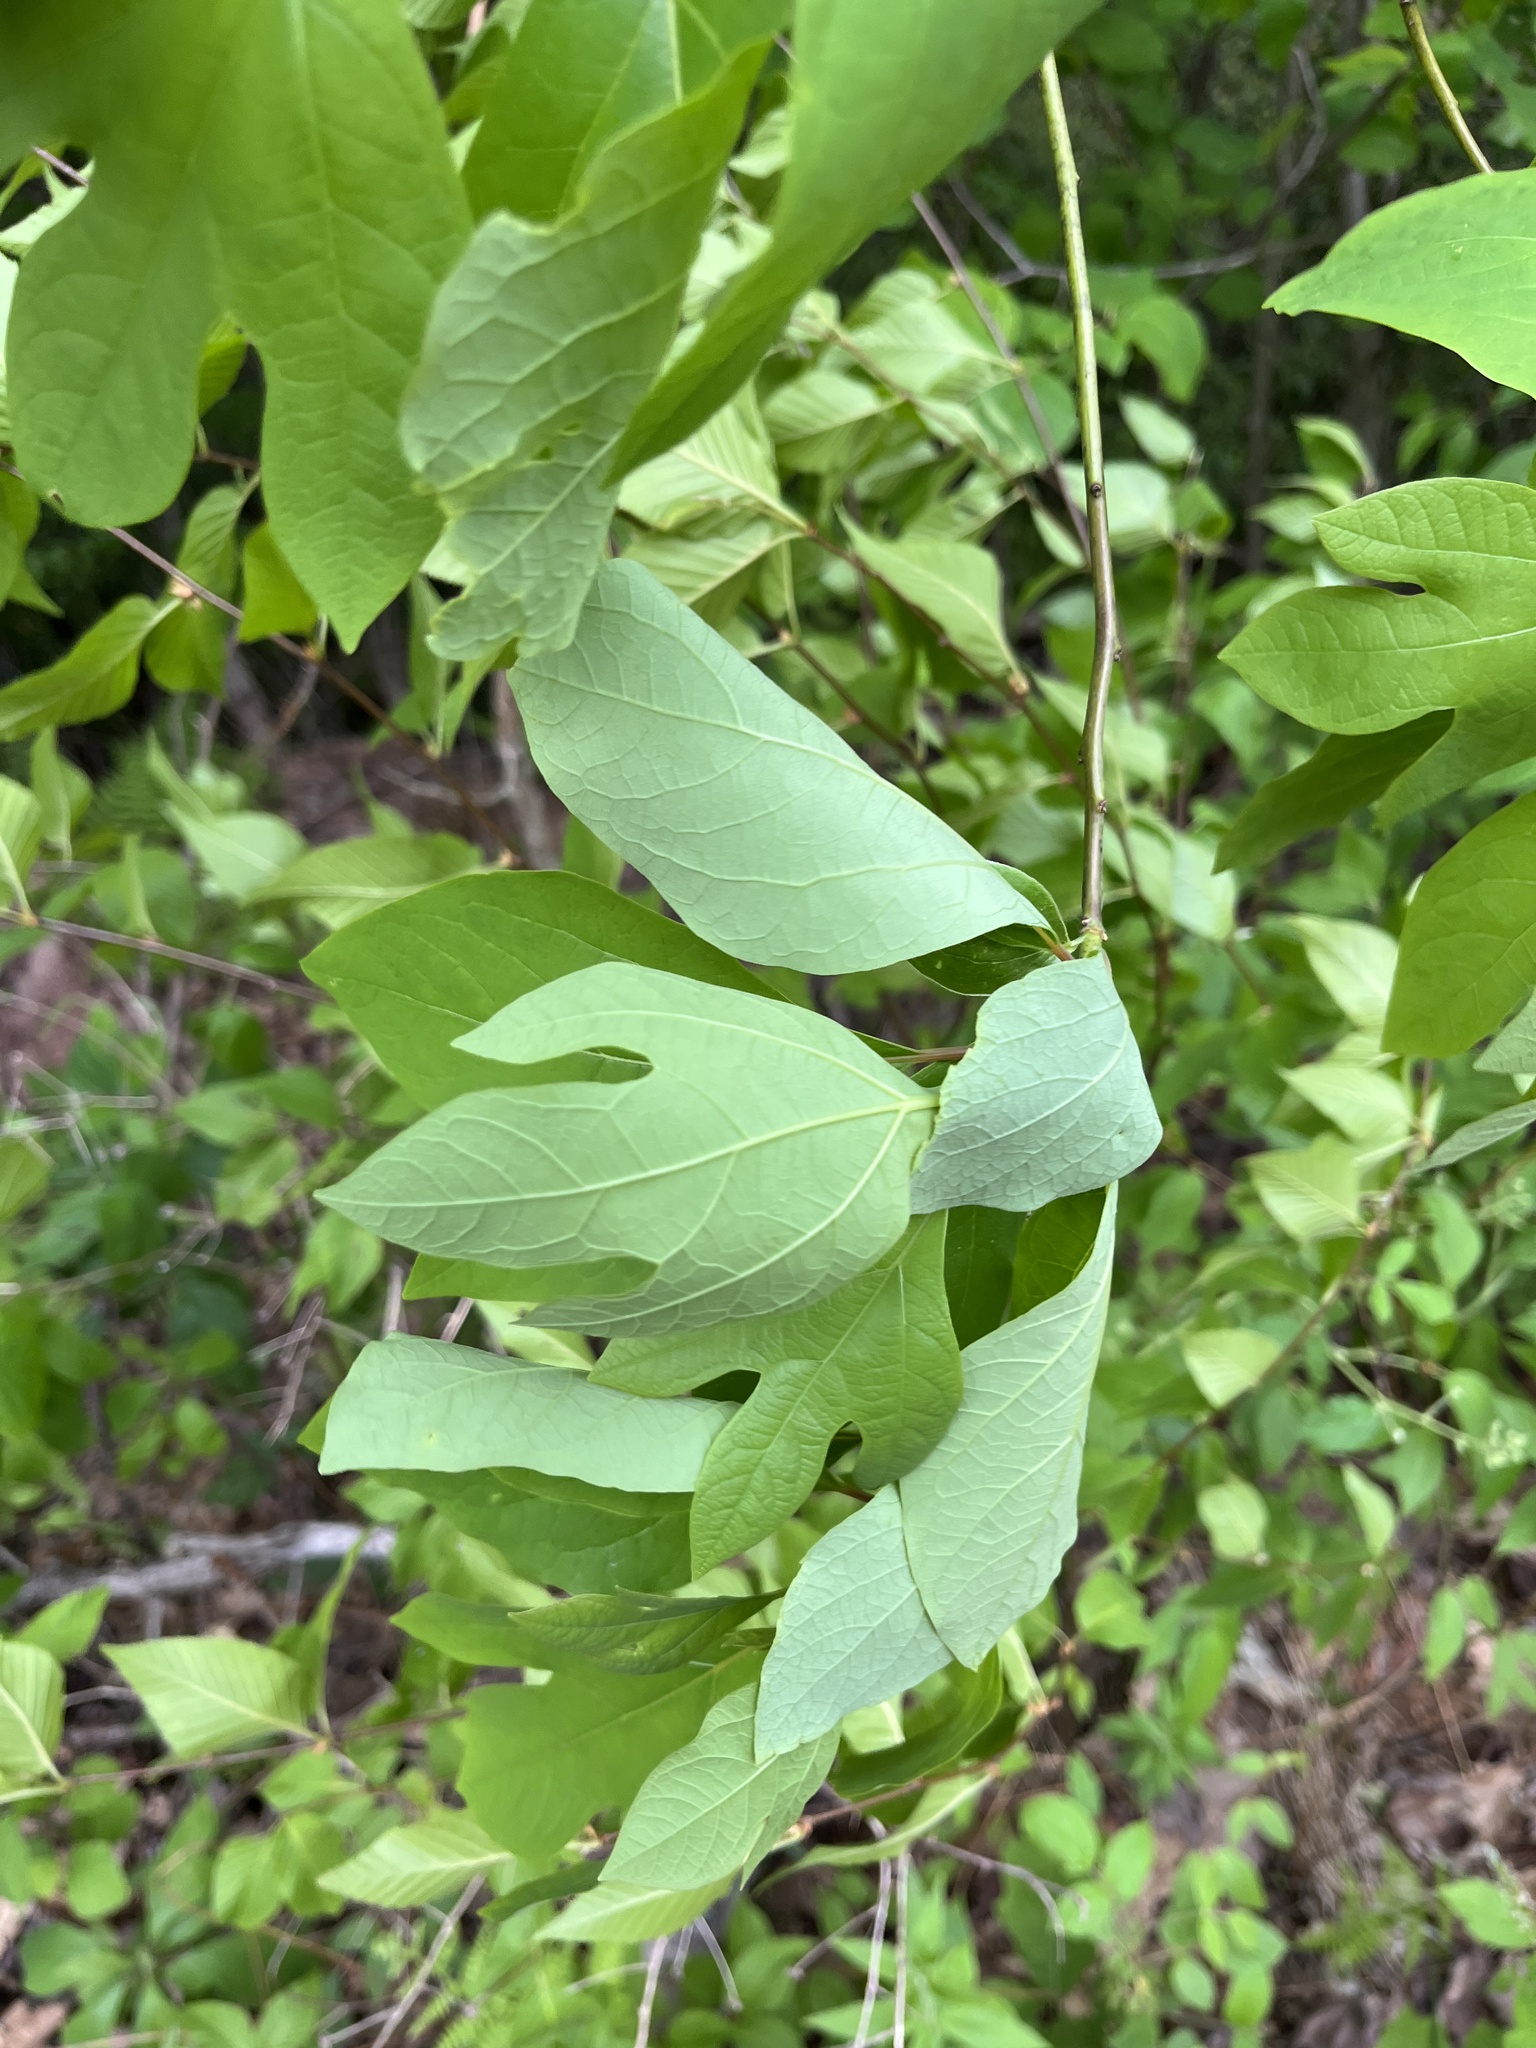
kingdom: Plantae
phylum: Tracheophyta
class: Magnoliopsida
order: Laurales
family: Lauraceae
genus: Sassafras
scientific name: Sassafras albidum
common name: Sassafras
